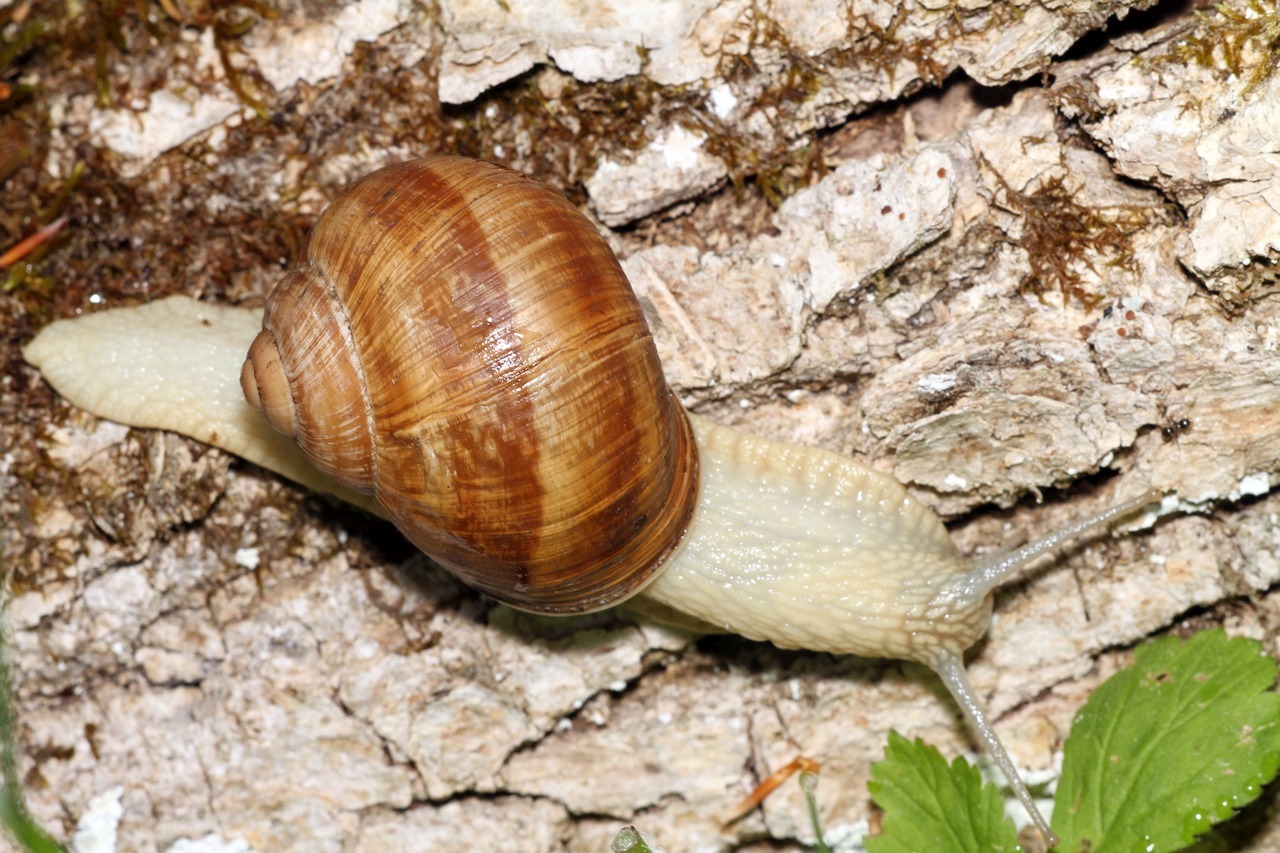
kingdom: Animalia
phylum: Mollusca
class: Gastropoda
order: Stylommatophora
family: Helicidae
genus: Helix
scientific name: Helix pomatia
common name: Roman snail
